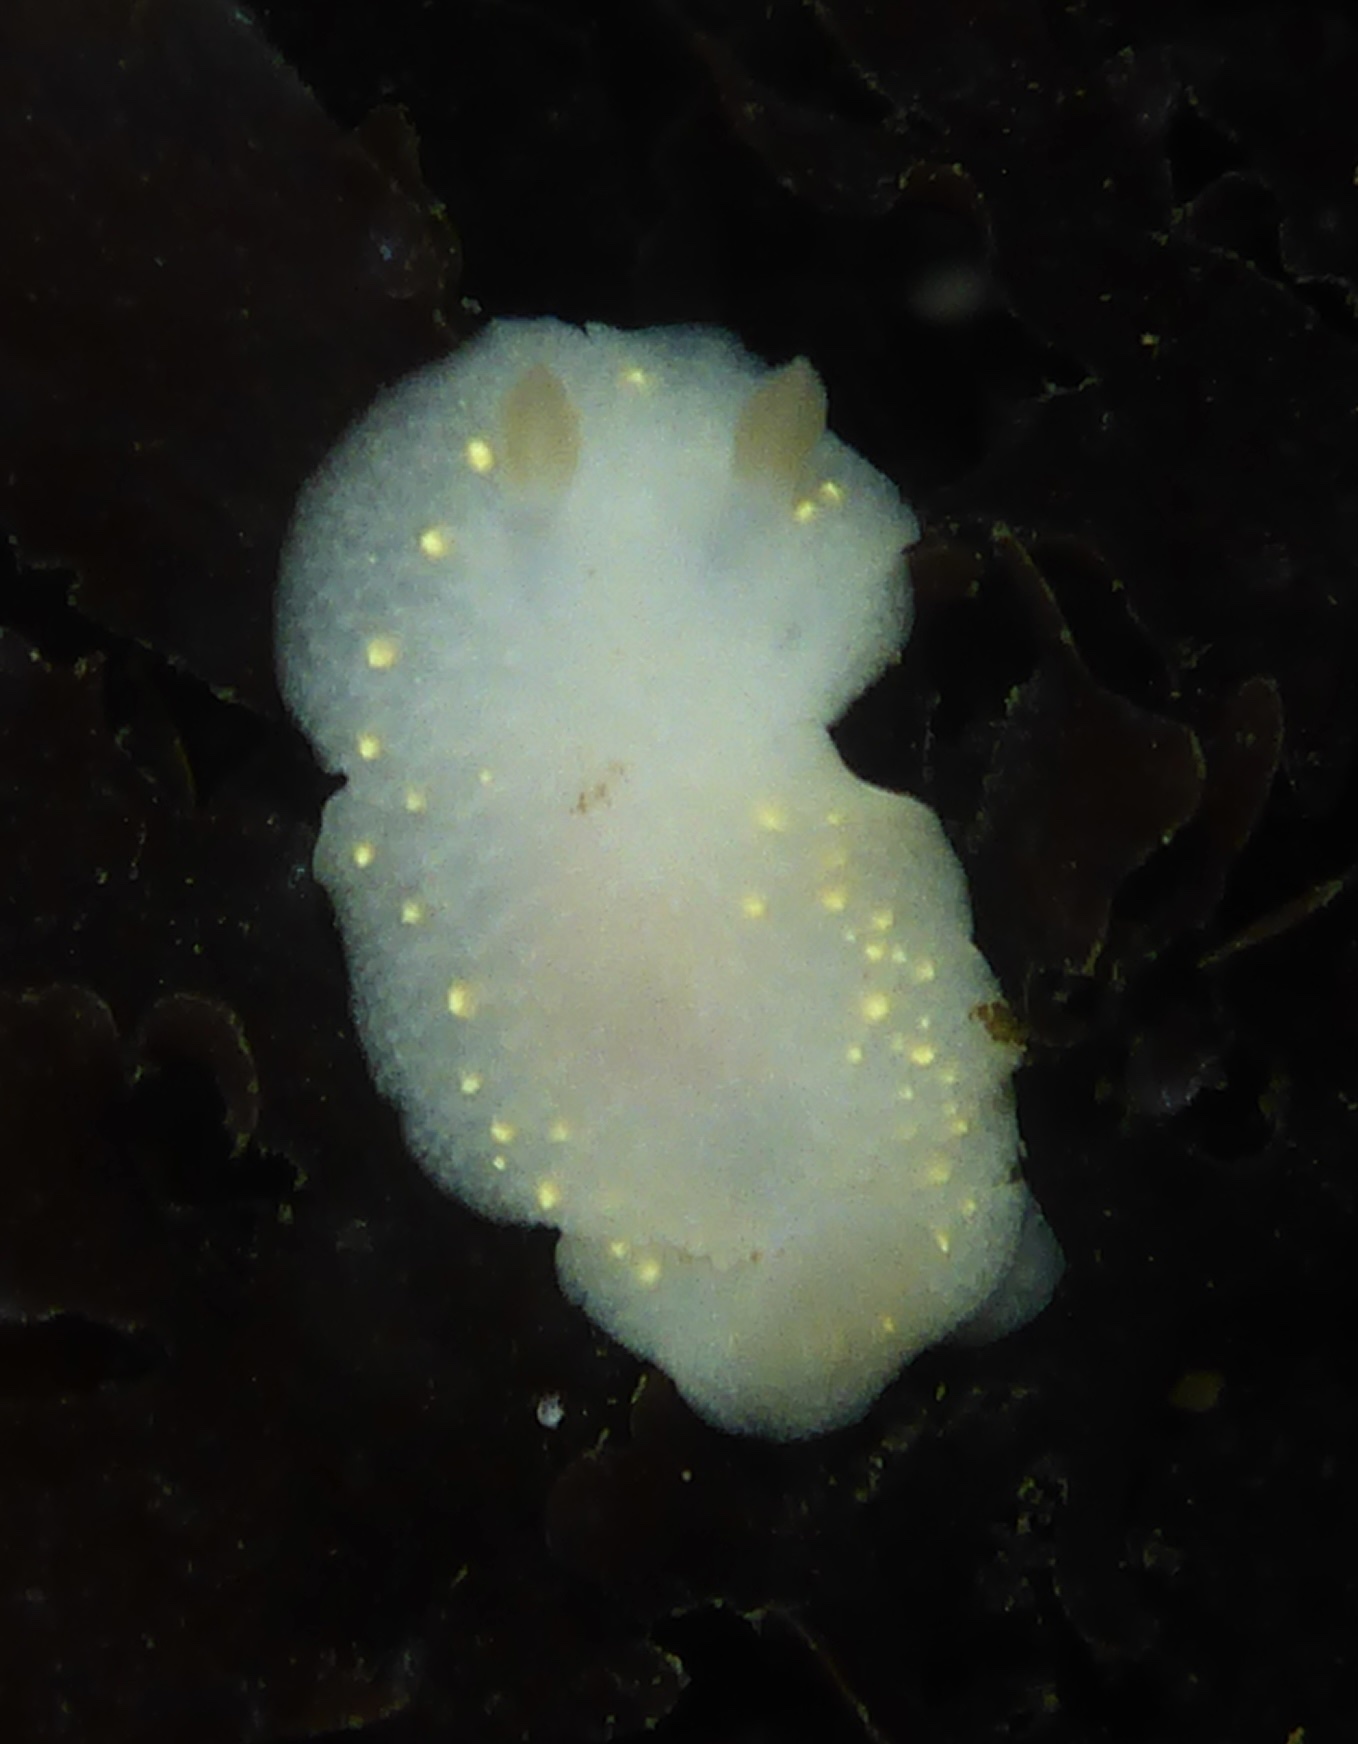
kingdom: Animalia
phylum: Mollusca
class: Gastropoda
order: Nudibranchia
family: Cadlinidae
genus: Cadlina
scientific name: Cadlina modesta
